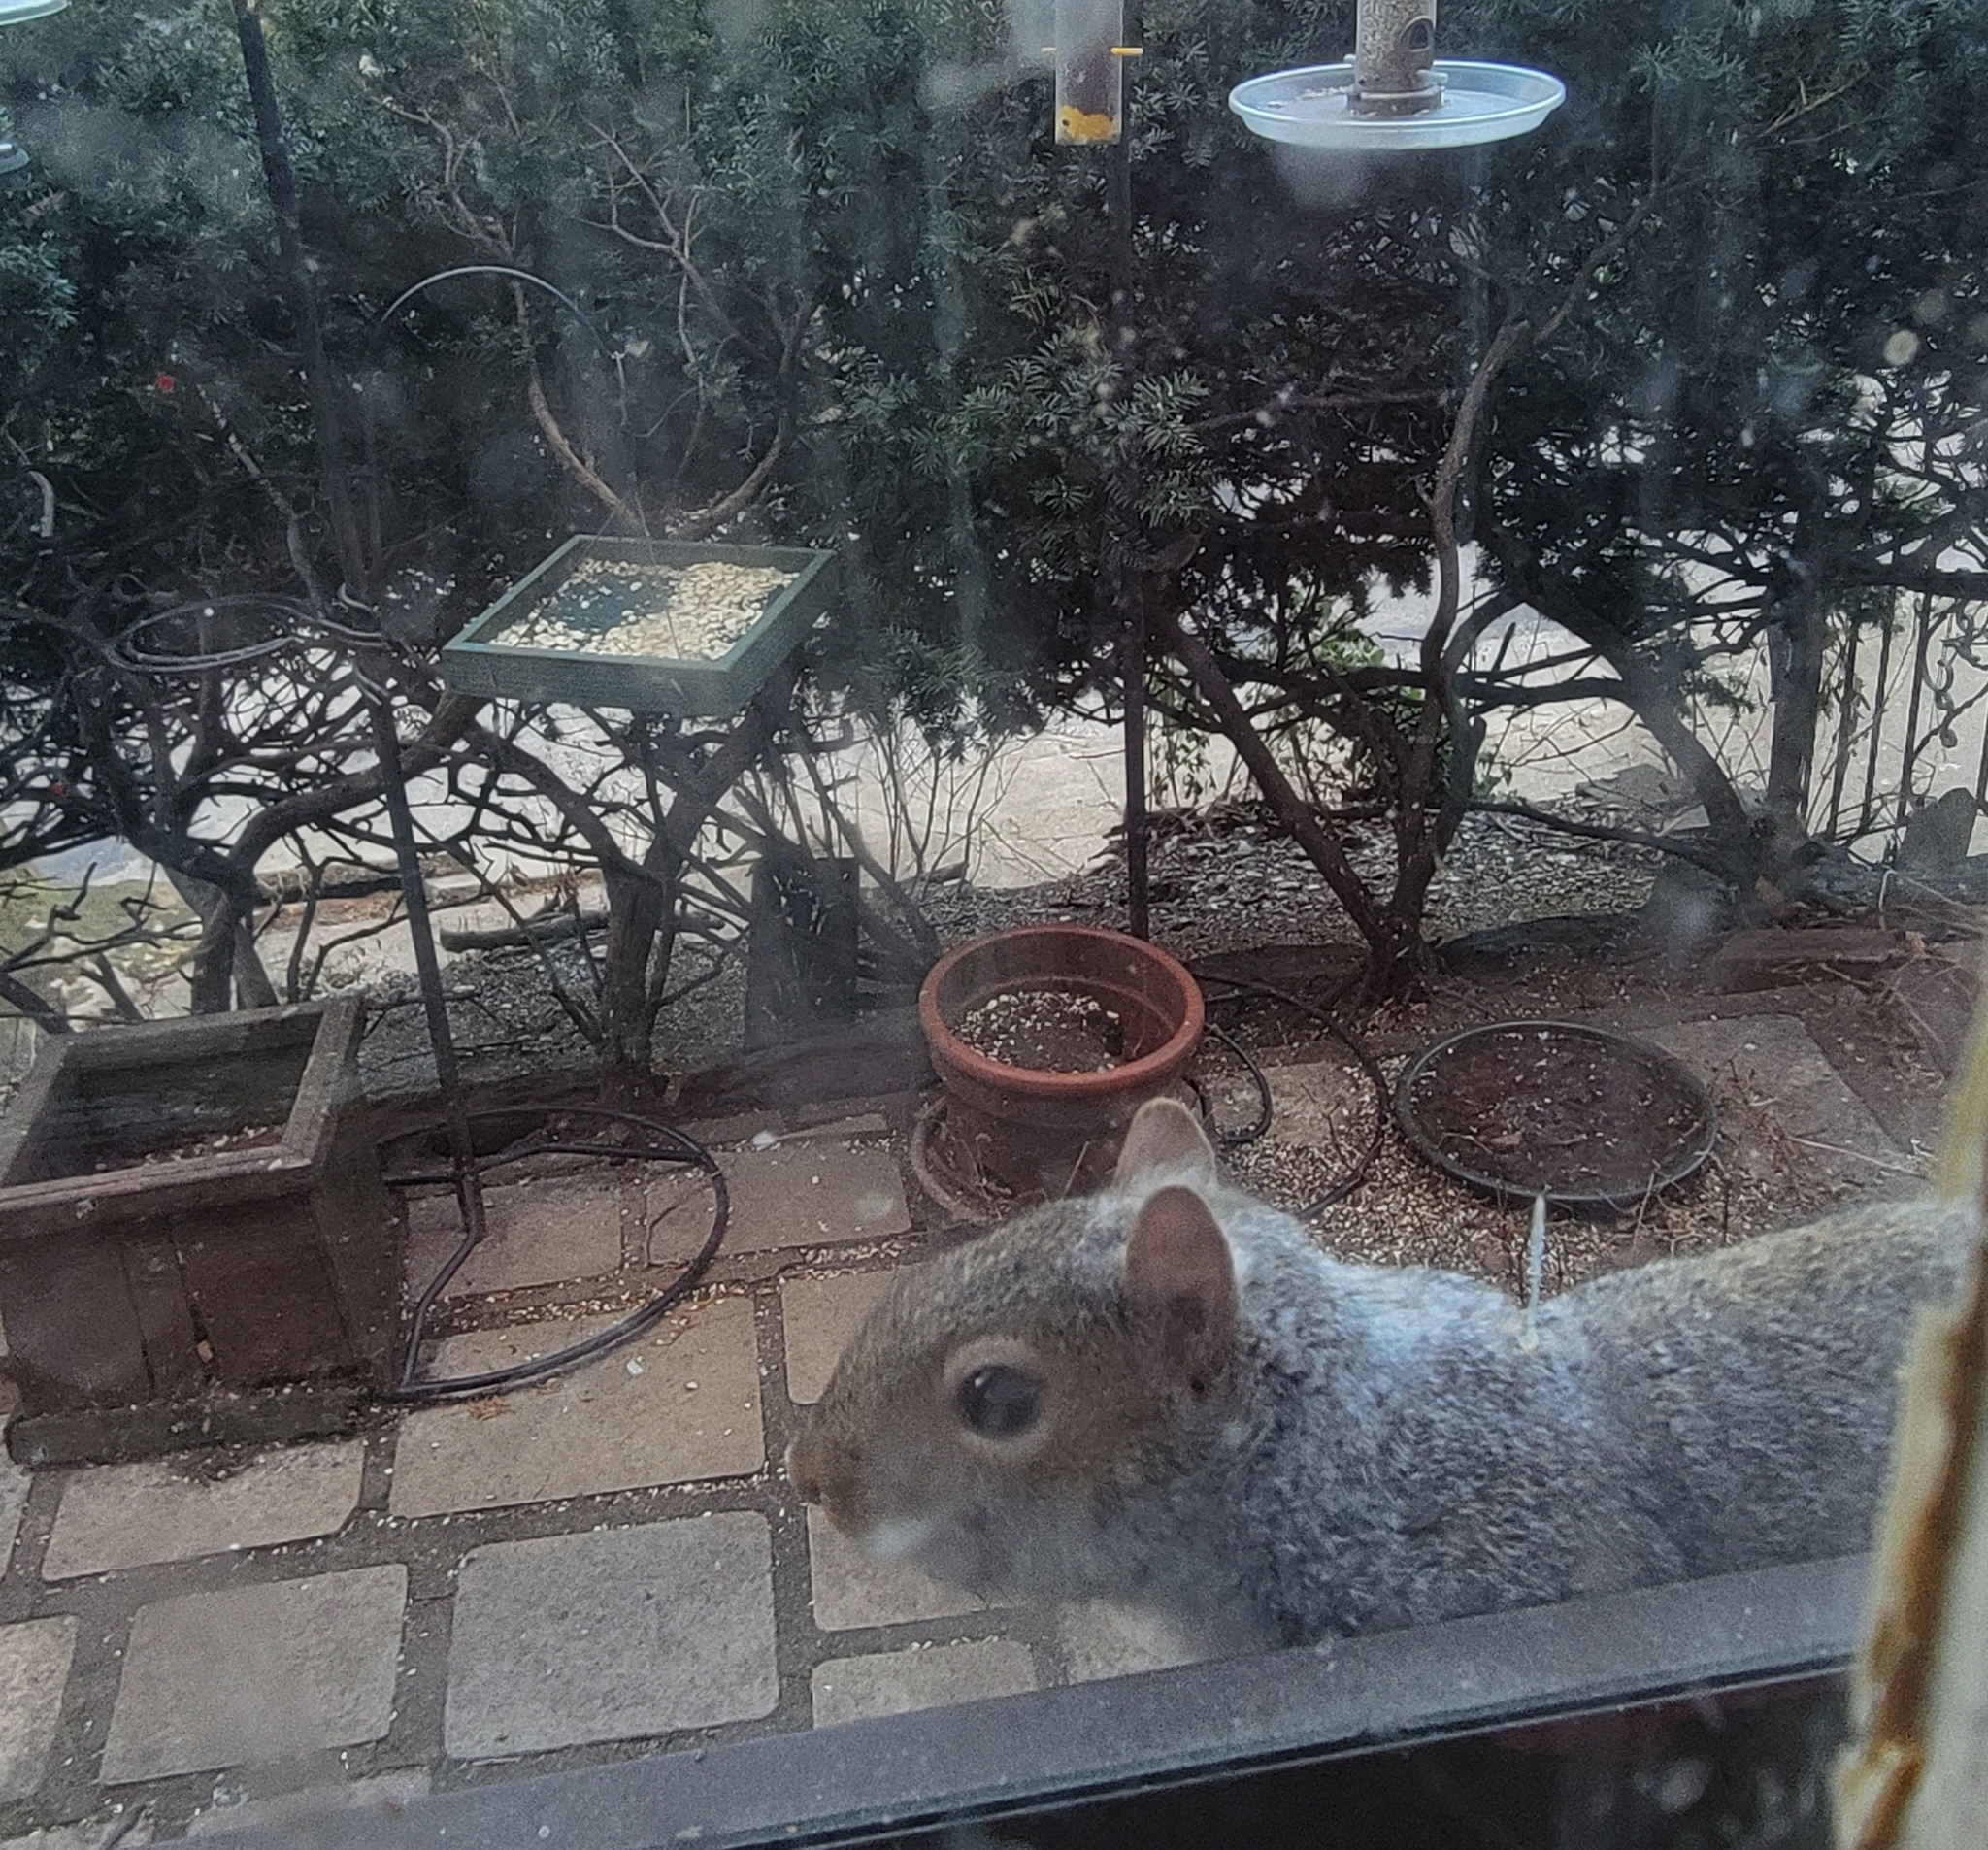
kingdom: Animalia
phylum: Chordata
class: Mammalia
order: Rodentia
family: Sciuridae
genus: Sciurus
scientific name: Sciurus carolinensis
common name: Eastern gray squirrel
